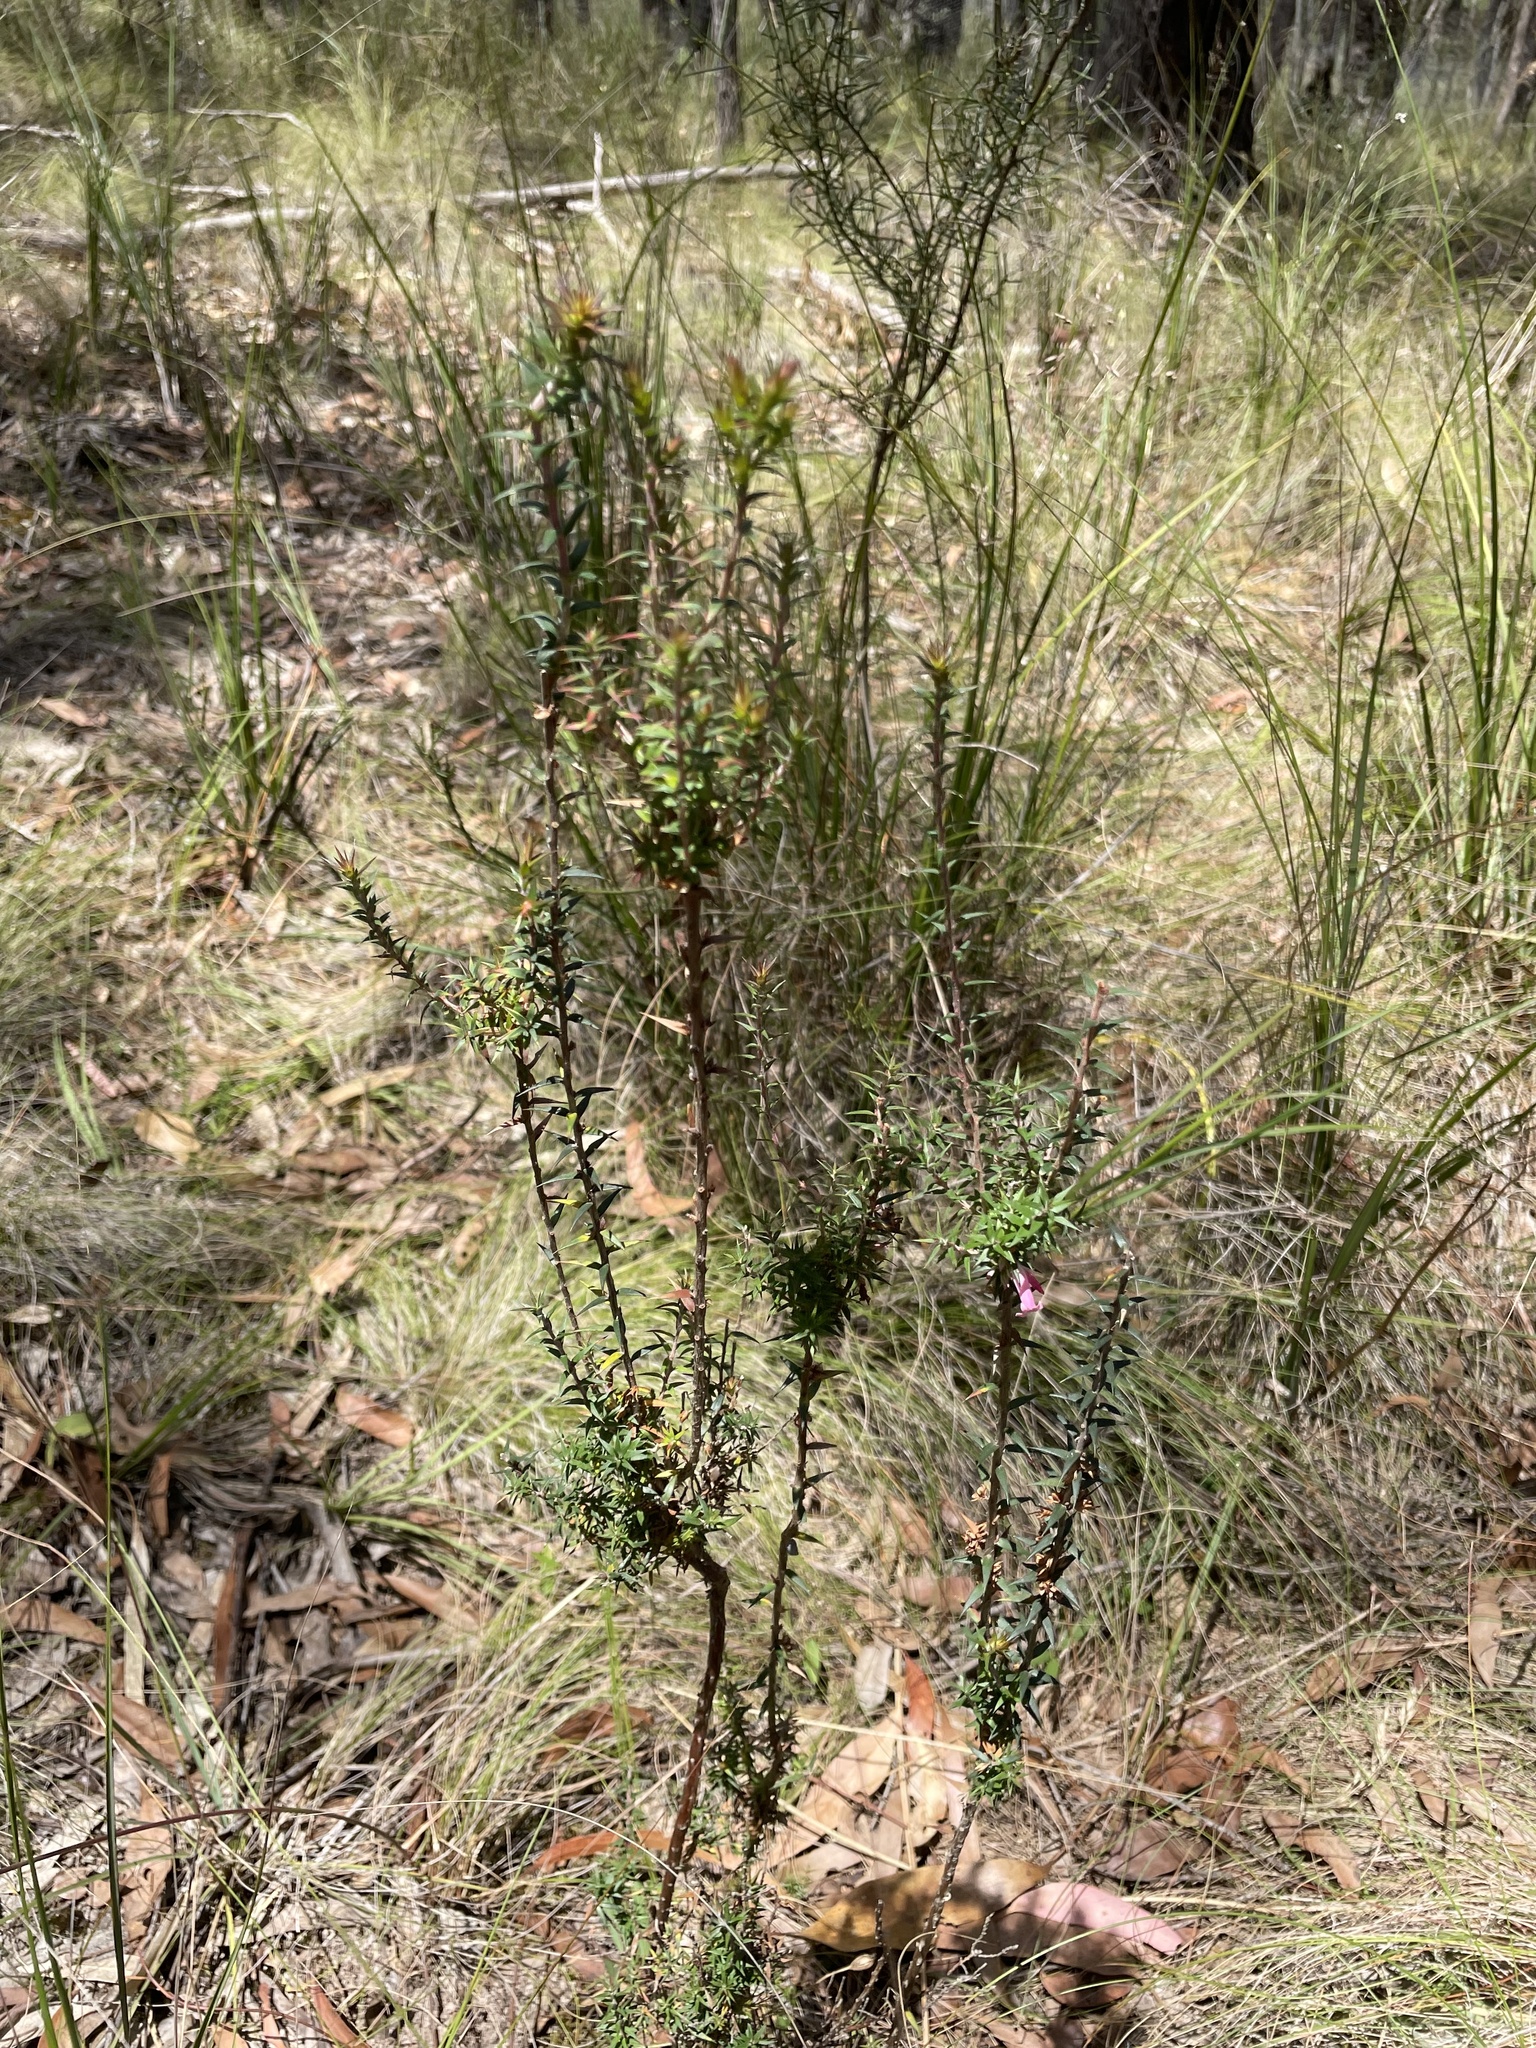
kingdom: Plantae
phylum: Tracheophyta
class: Magnoliopsida
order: Ericales
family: Ericaceae
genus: Epacris
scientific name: Epacris impressa
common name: Common-heath
